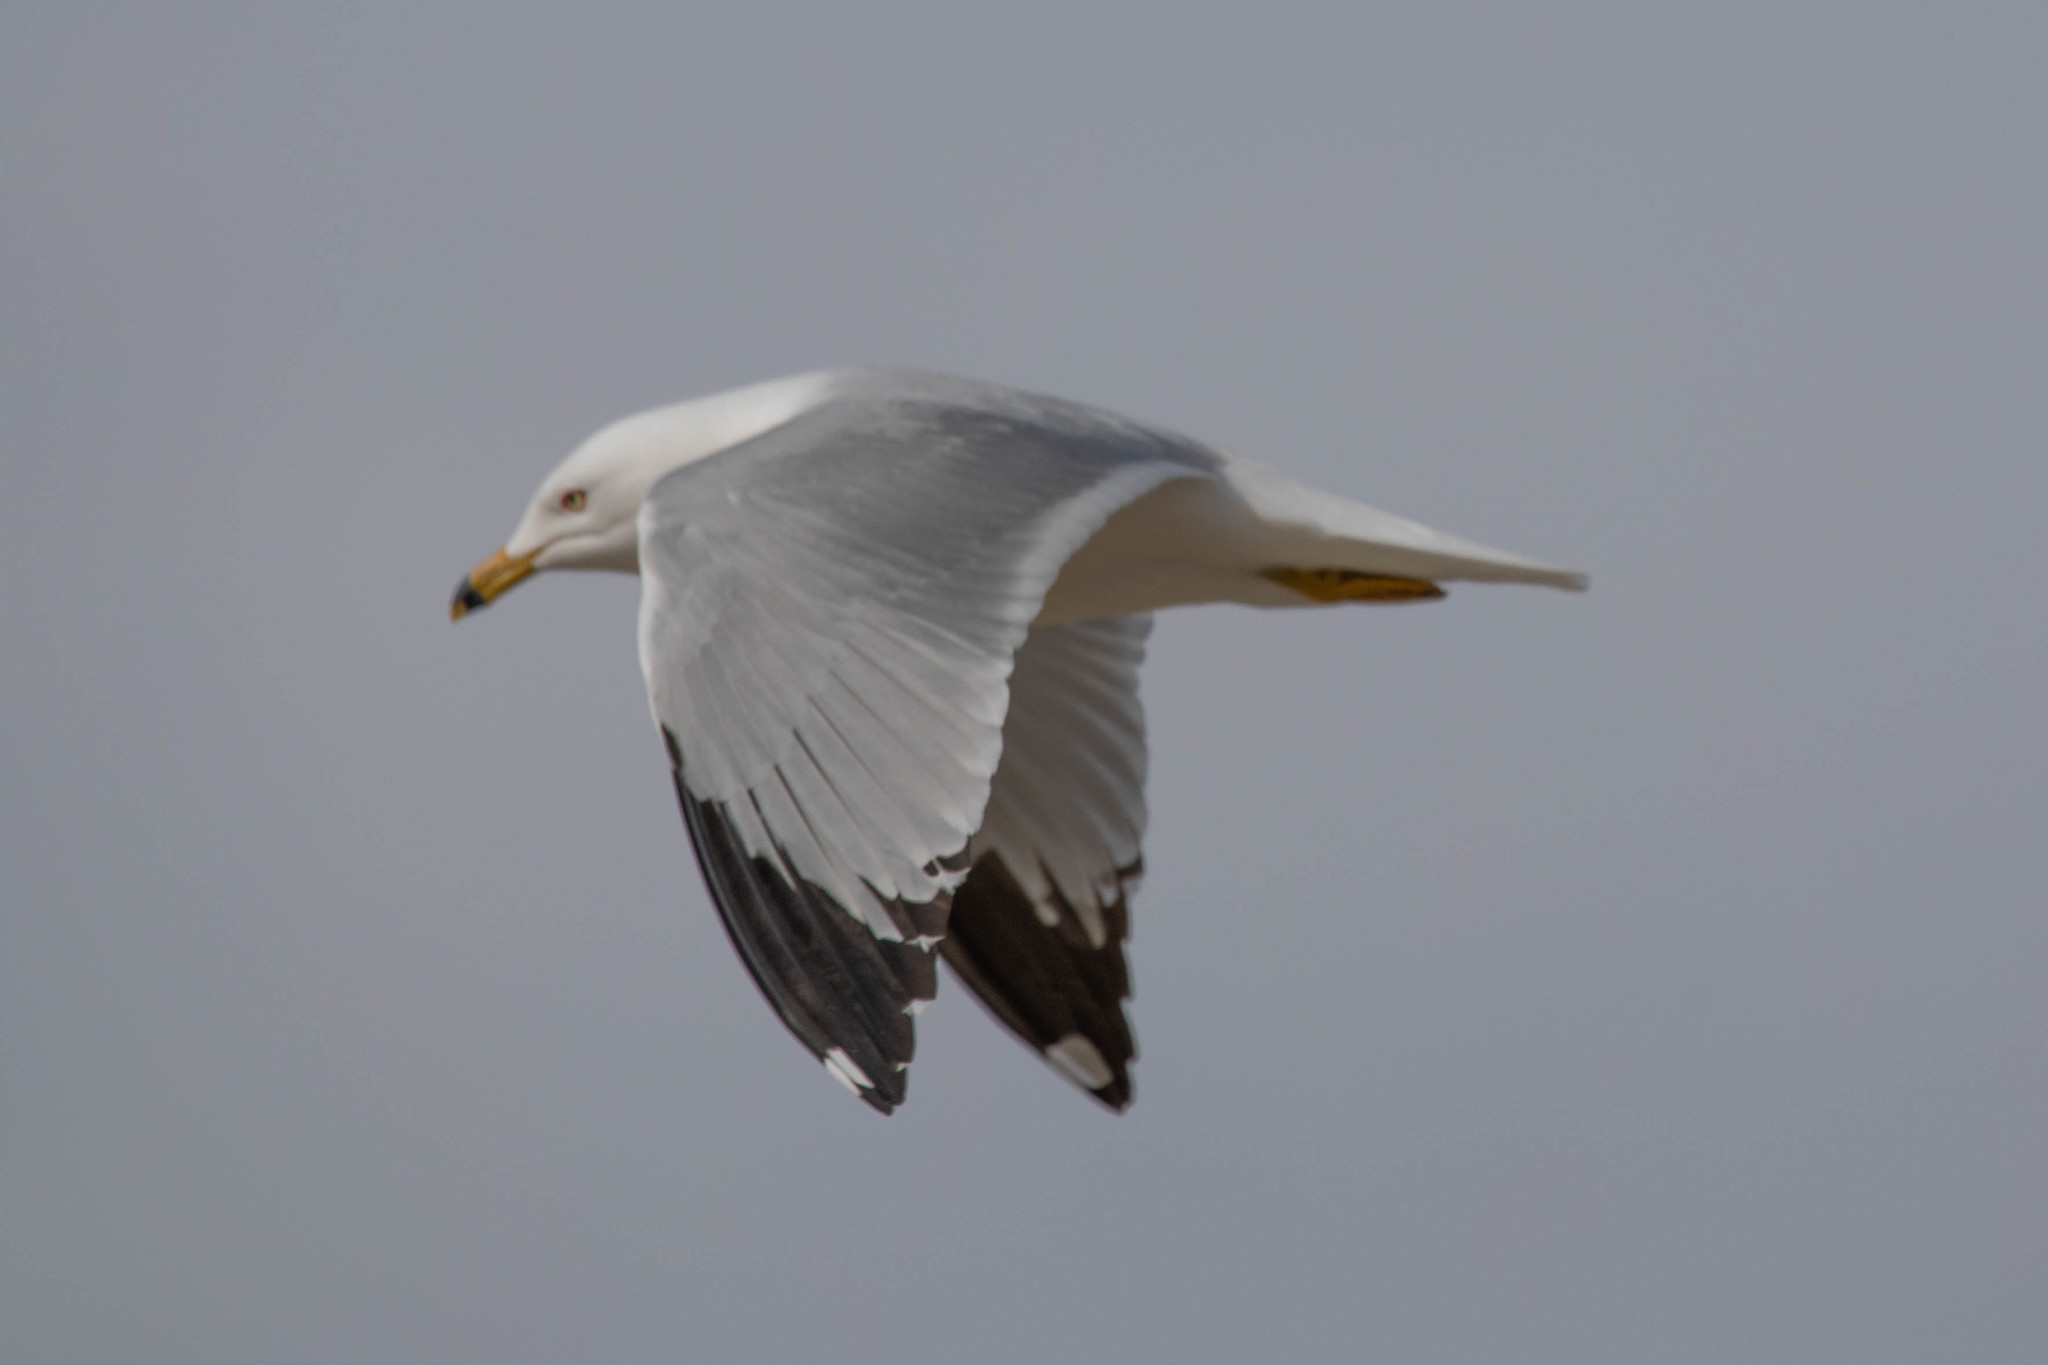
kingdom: Animalia
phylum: Chordata
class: Aves
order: Charadriiformes
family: Laridae
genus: Larus
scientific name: Larus delawarensis
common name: Ring-billed gull
